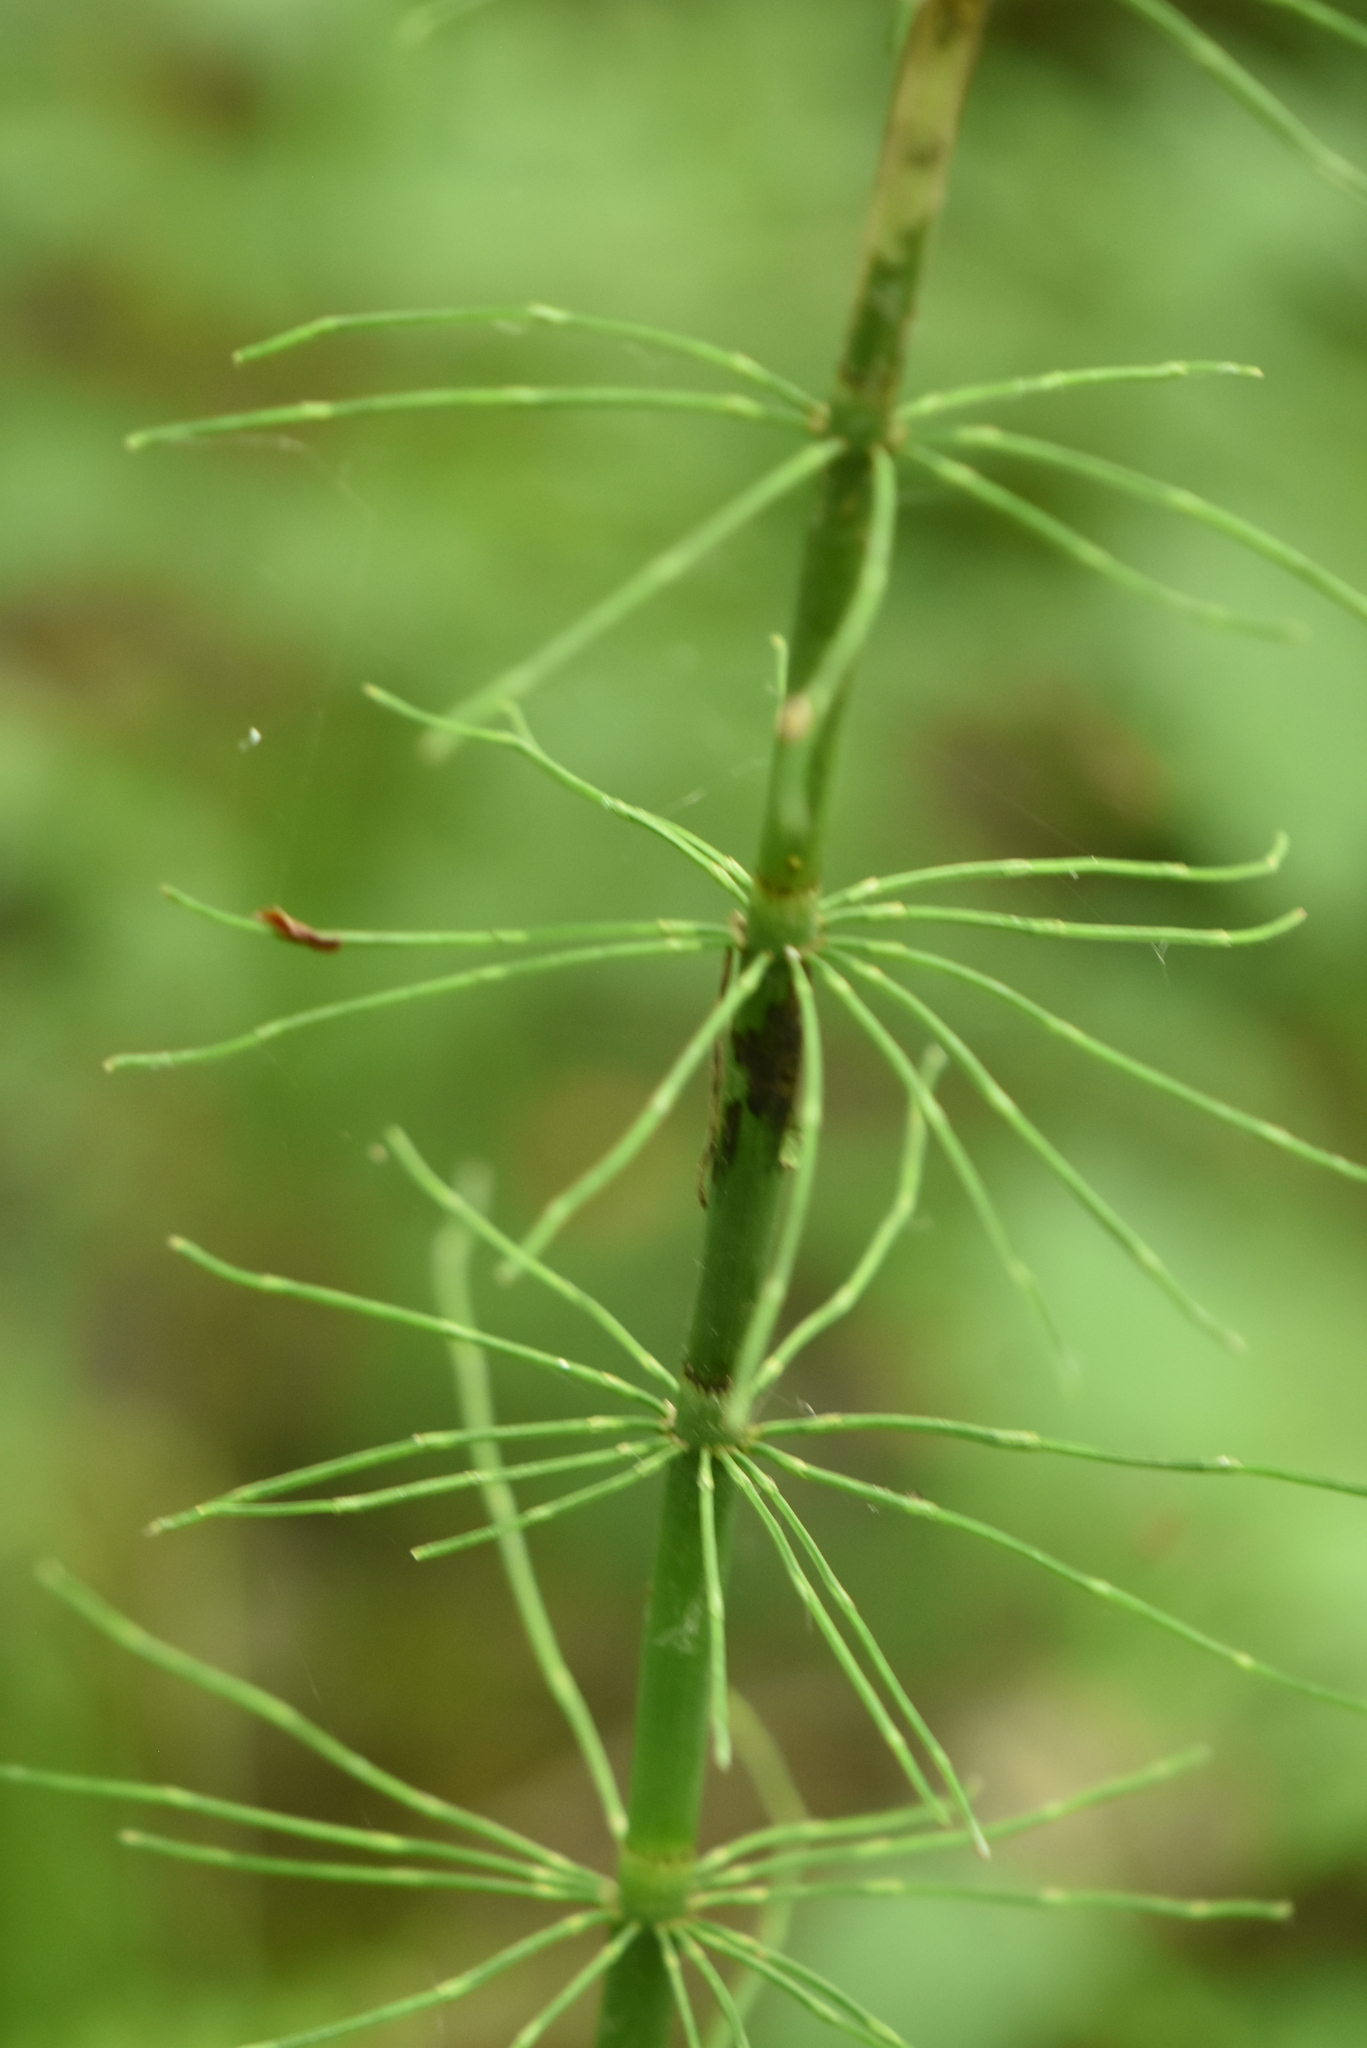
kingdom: Plantae
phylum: Tracheophyta
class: Polypodiopsida
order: Equisetales
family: Equisetaceae
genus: Equisetum
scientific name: Equisetum fluviatile
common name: Water horsetail
